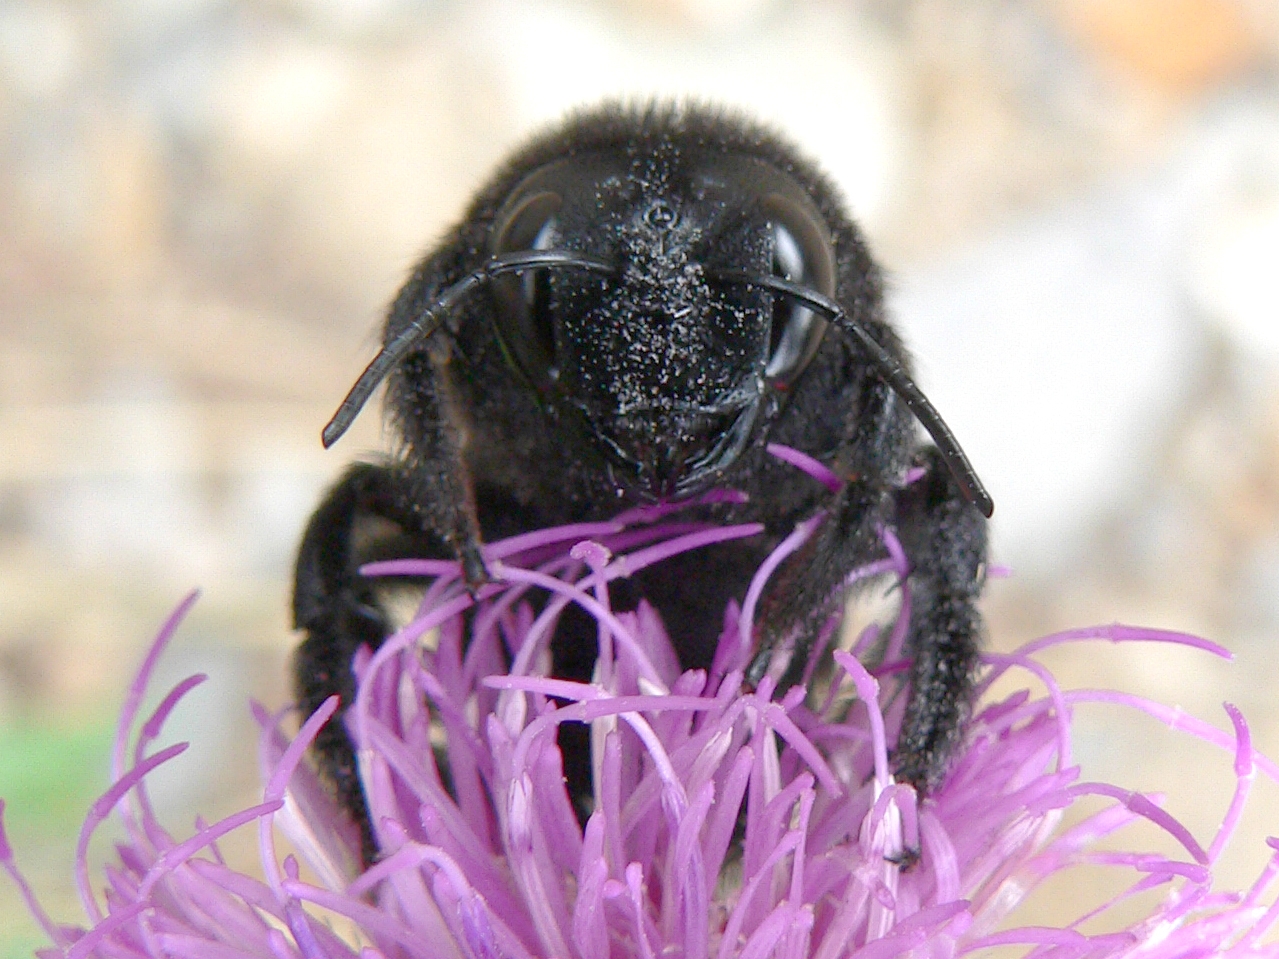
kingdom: Animalia
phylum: Arthropoda
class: Insecta
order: Hymenoptera
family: Apidae
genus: Xylocopa
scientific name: Xylocopa violacea
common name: Violet carpenter bee
